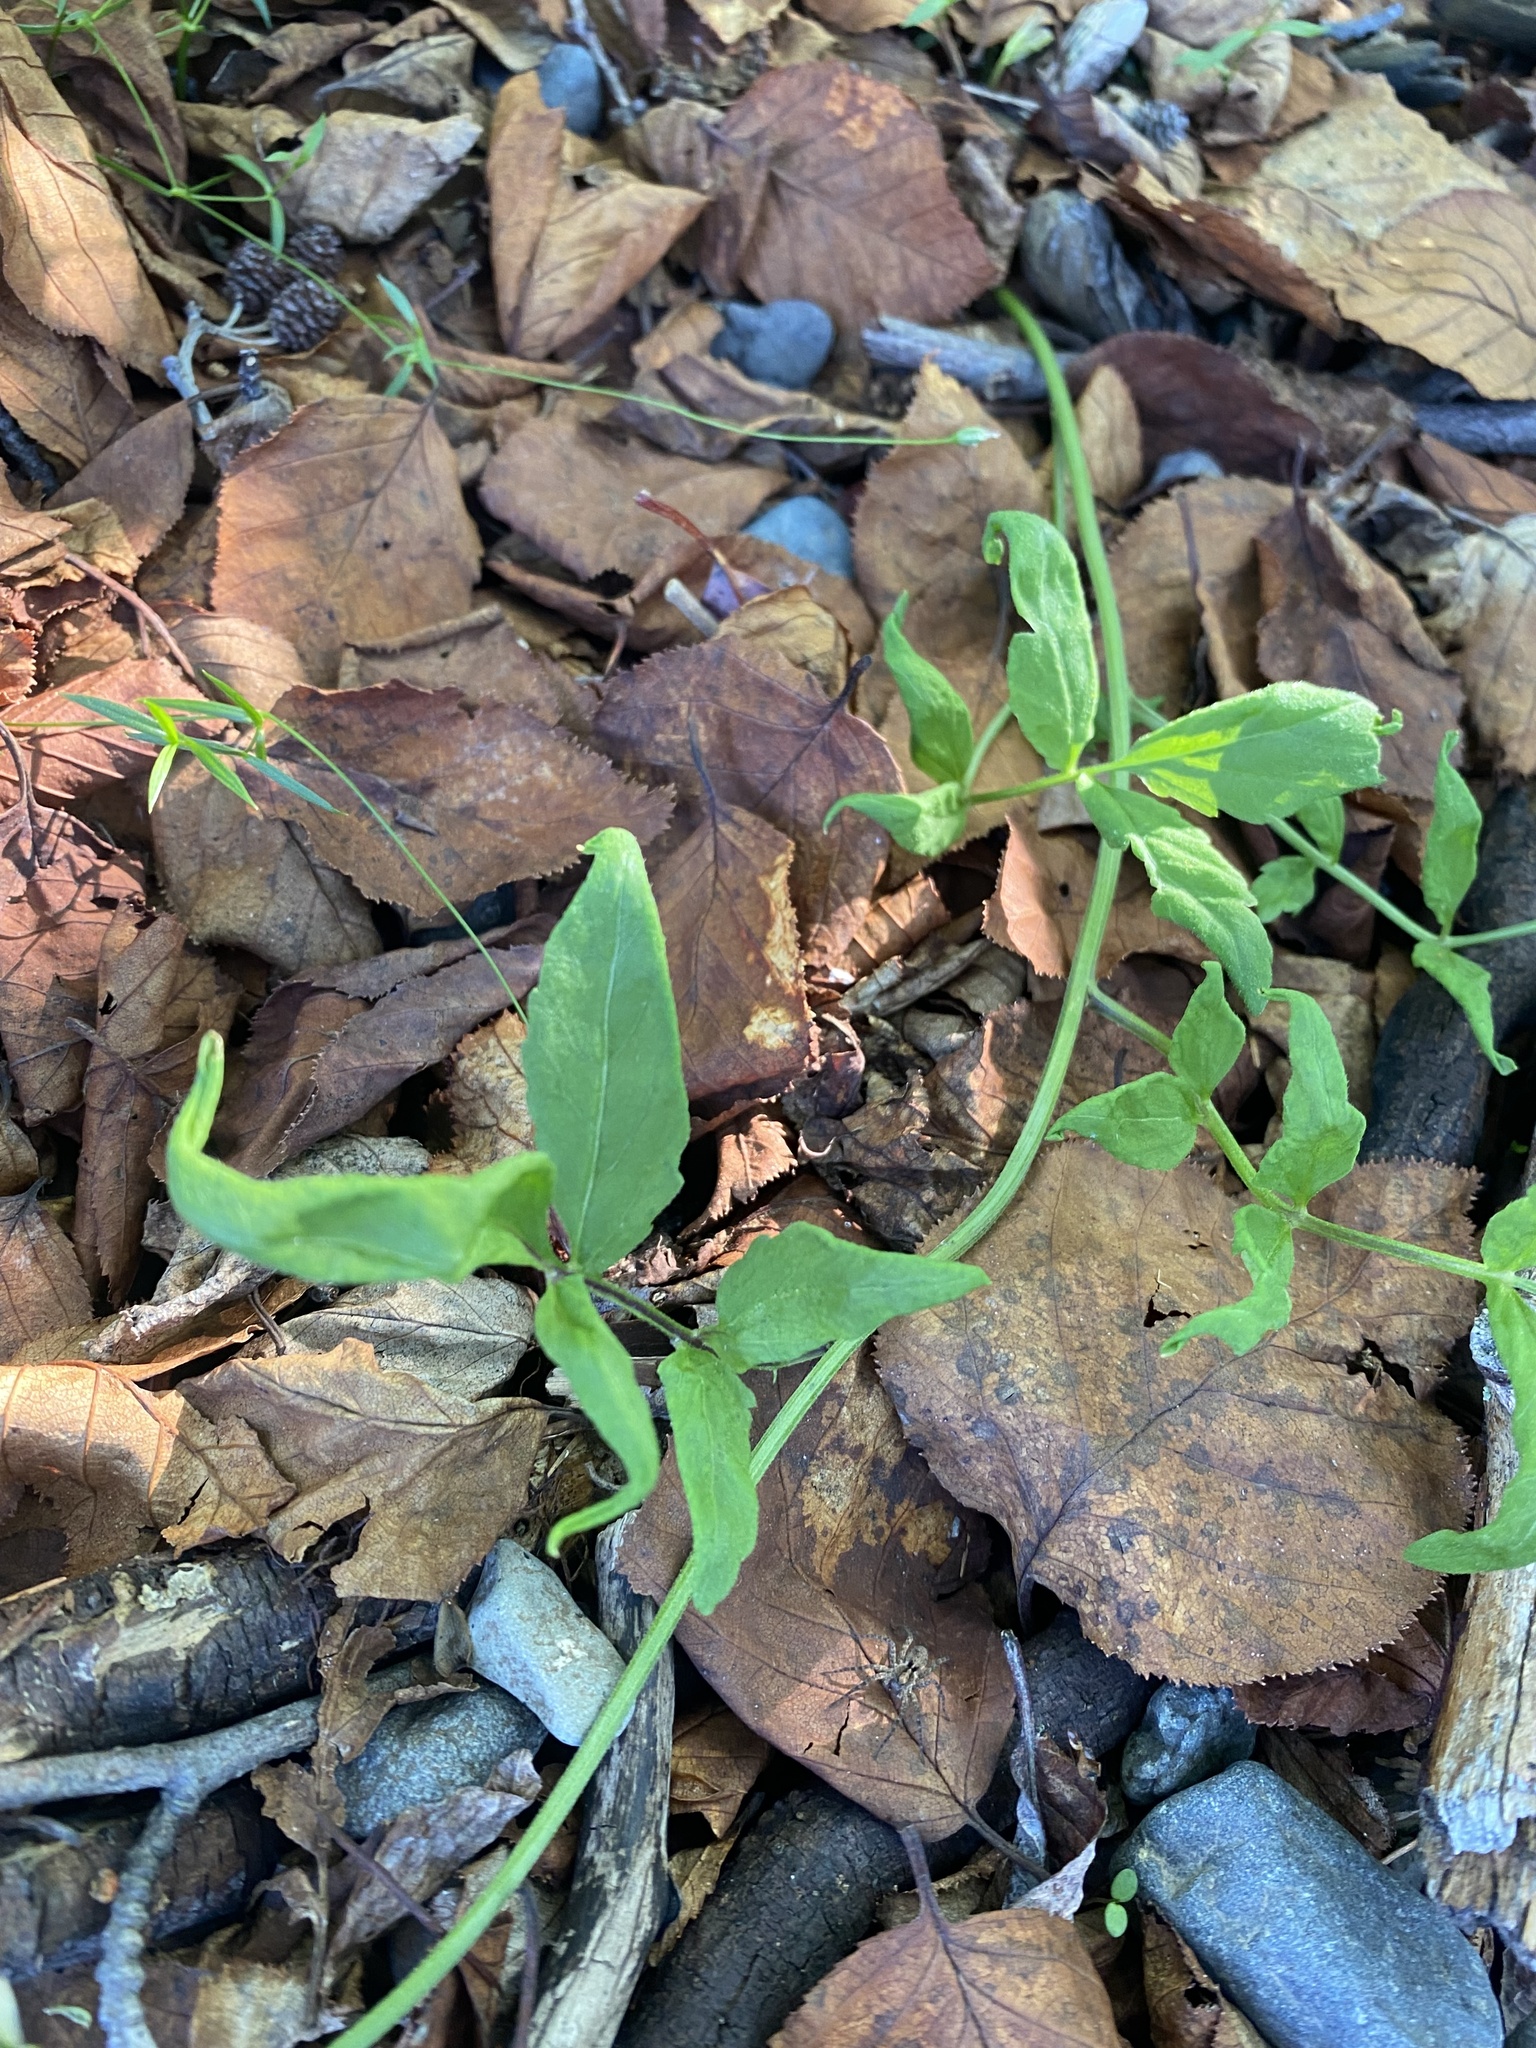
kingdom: Plantae
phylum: Tracheophyta
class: Magnoliopsida
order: Brassicales
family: Brassicaceae
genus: Erysimum
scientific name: Erysimum pallasii
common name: Pallas' wallflower
